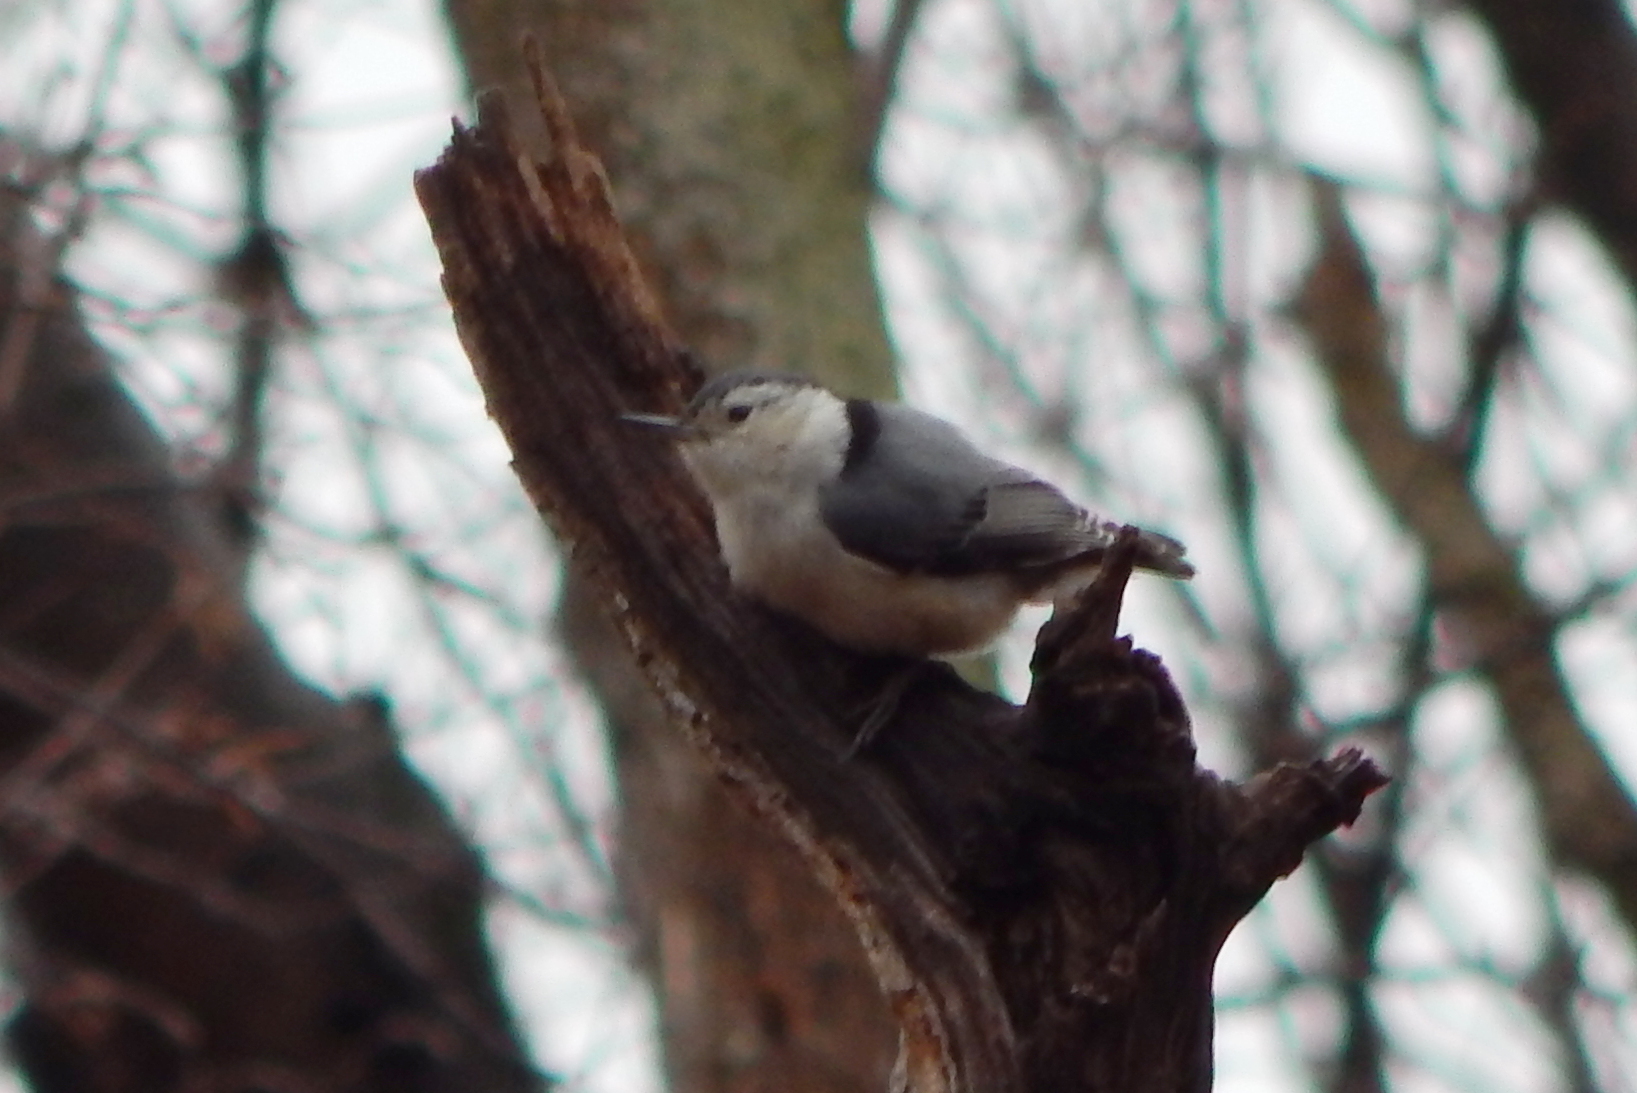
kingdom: Animalia
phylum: Chordata
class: Aves
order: Passeriformes
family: Sittidae
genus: Sitta
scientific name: Sitta carolinensis
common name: White-breasted nuthatch
